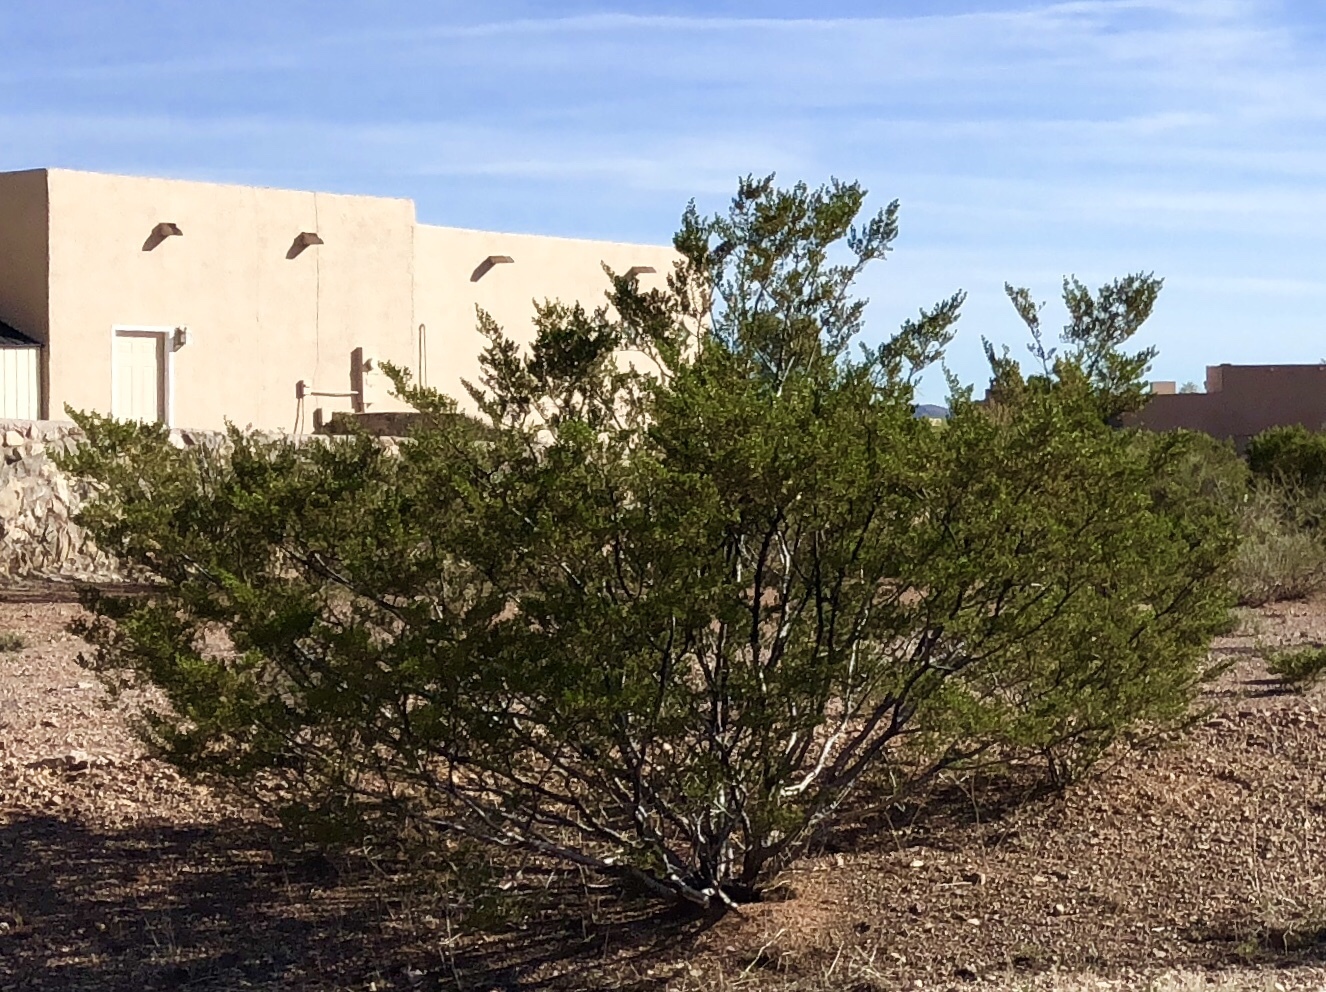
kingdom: Plantae
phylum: Tracheophyta
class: Magnoliopsida
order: Zygophyllales
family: Zygophyllaceae
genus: Larrea
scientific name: Larrea tridentata
